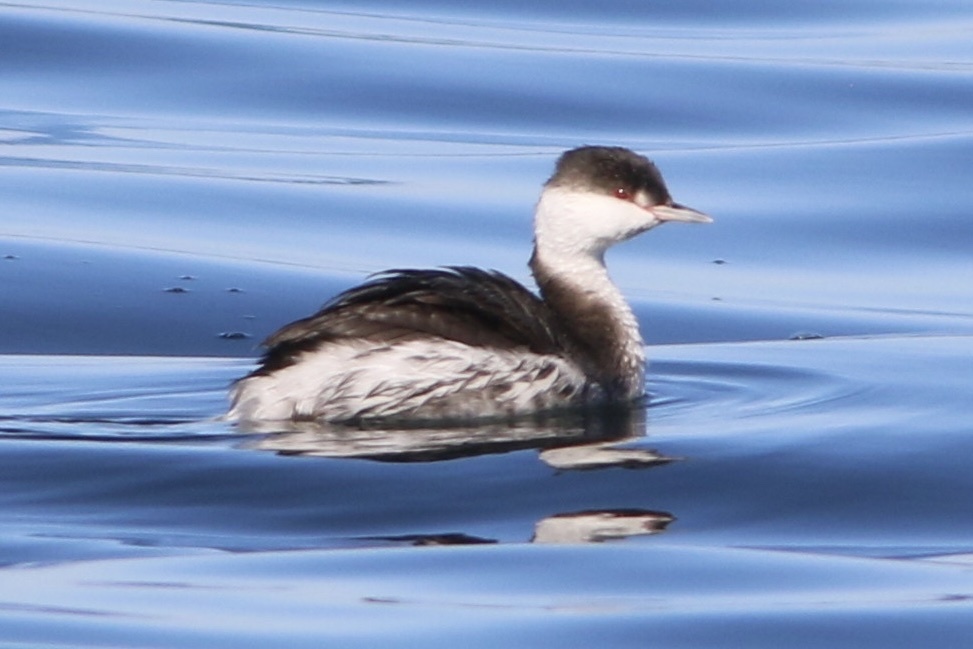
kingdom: Animalia
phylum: Chordata
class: Aves
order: Podicipediformes
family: Podicipedidae
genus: Podiceps
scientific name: Podiceps auritus
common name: Horned grebe
